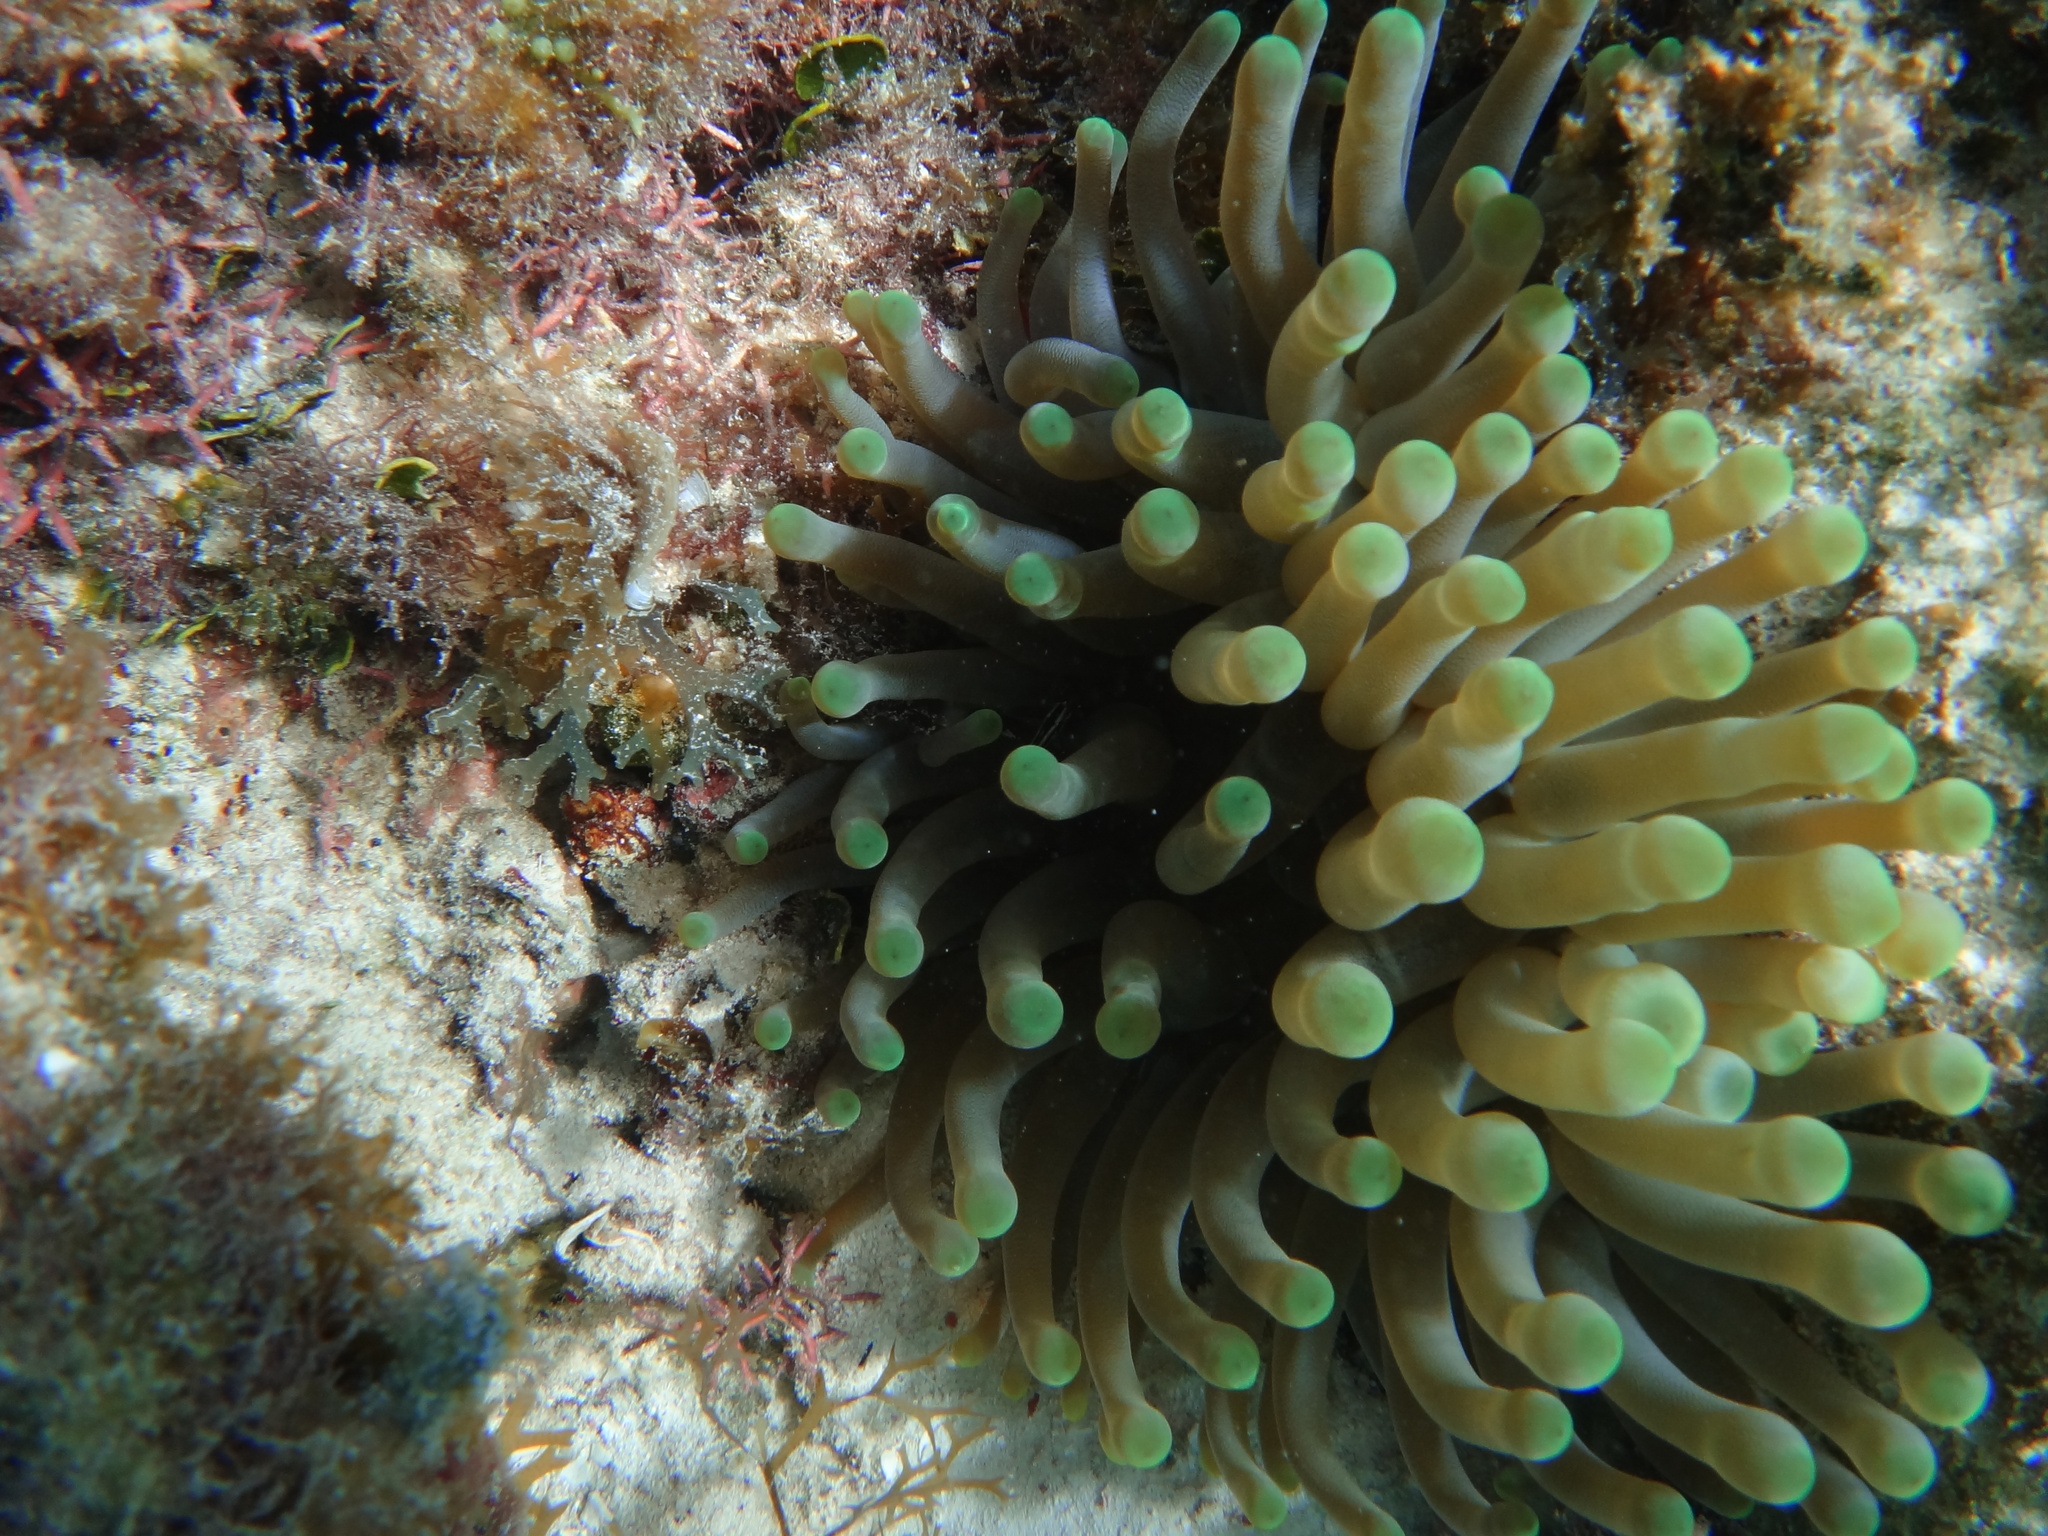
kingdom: Animalia
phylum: Cnidaria
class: Anthozoa
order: Actiniaria
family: Actiniidae
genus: Condylactis
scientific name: Condylactis gigantea
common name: Giant caribbean anemone
